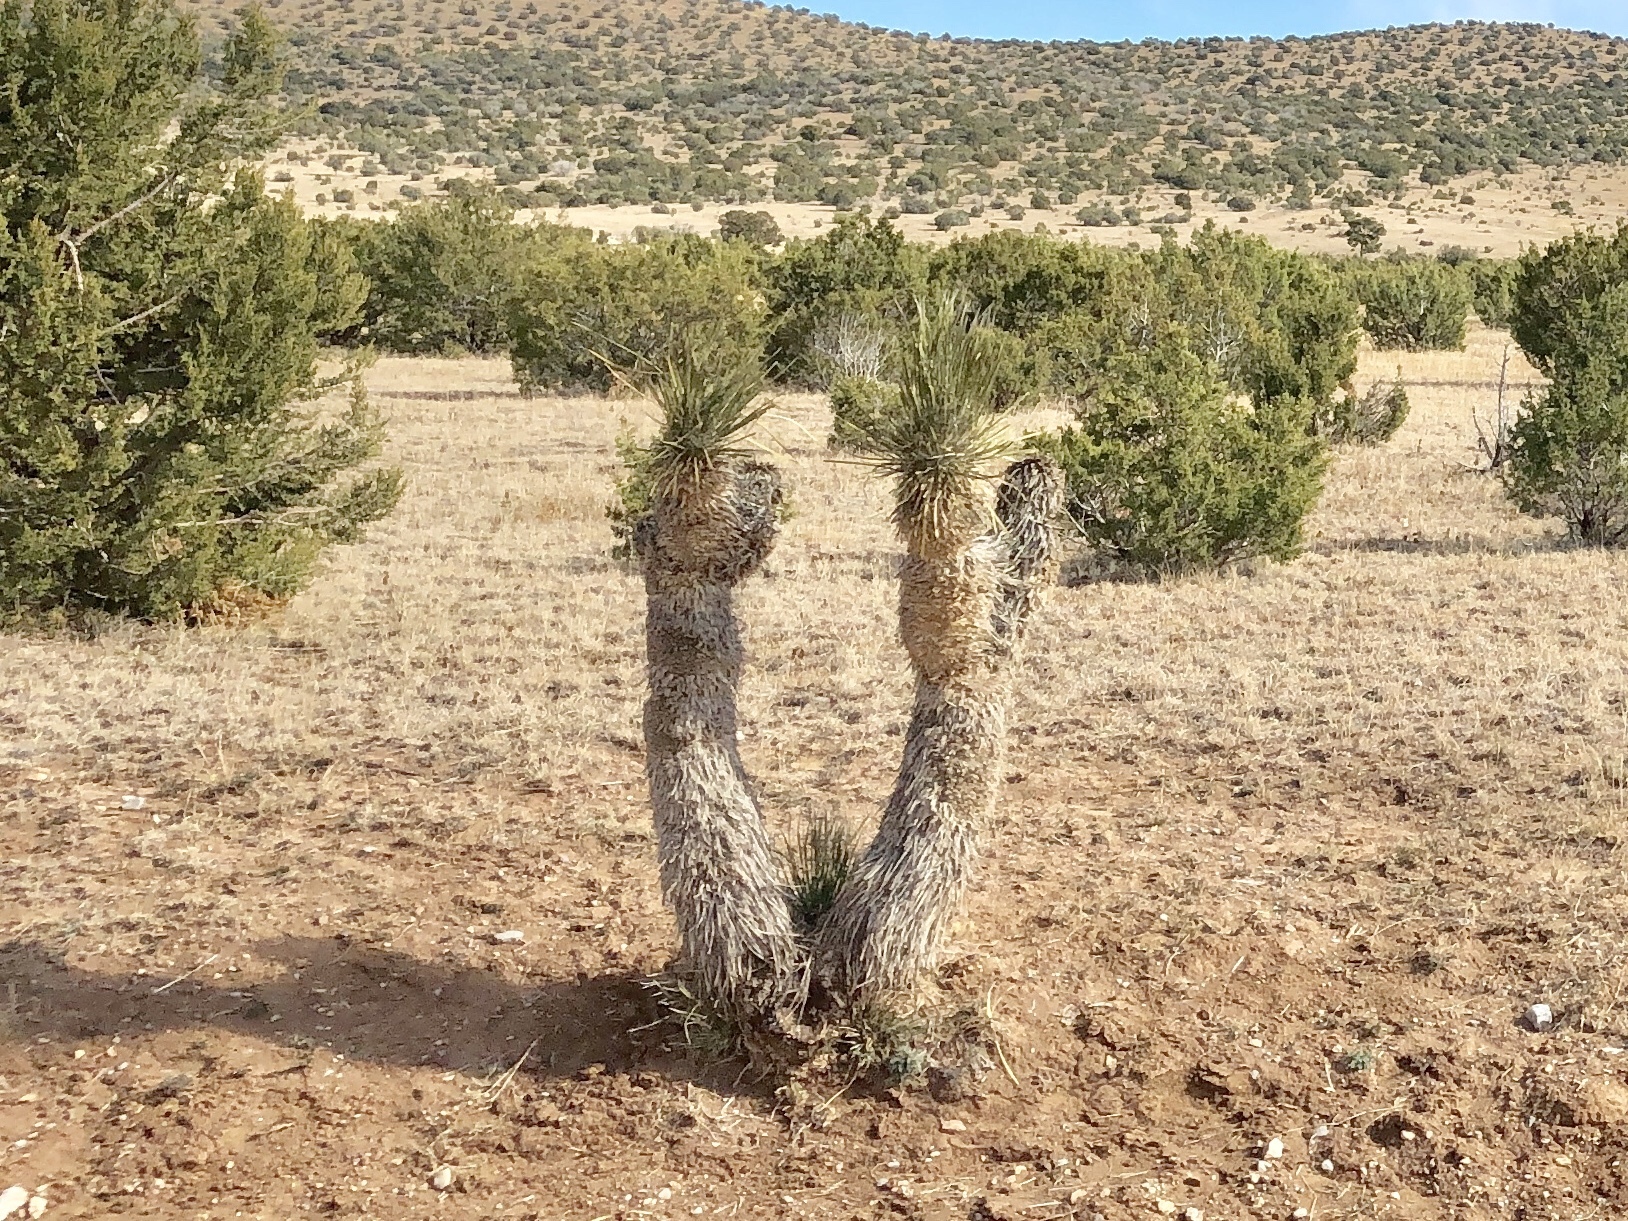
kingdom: Plantae
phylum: Tracheophyta
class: Liliopsida
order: Asparagales
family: Asparagaceae
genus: Yucca
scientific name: Yucca elata
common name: Palmella
